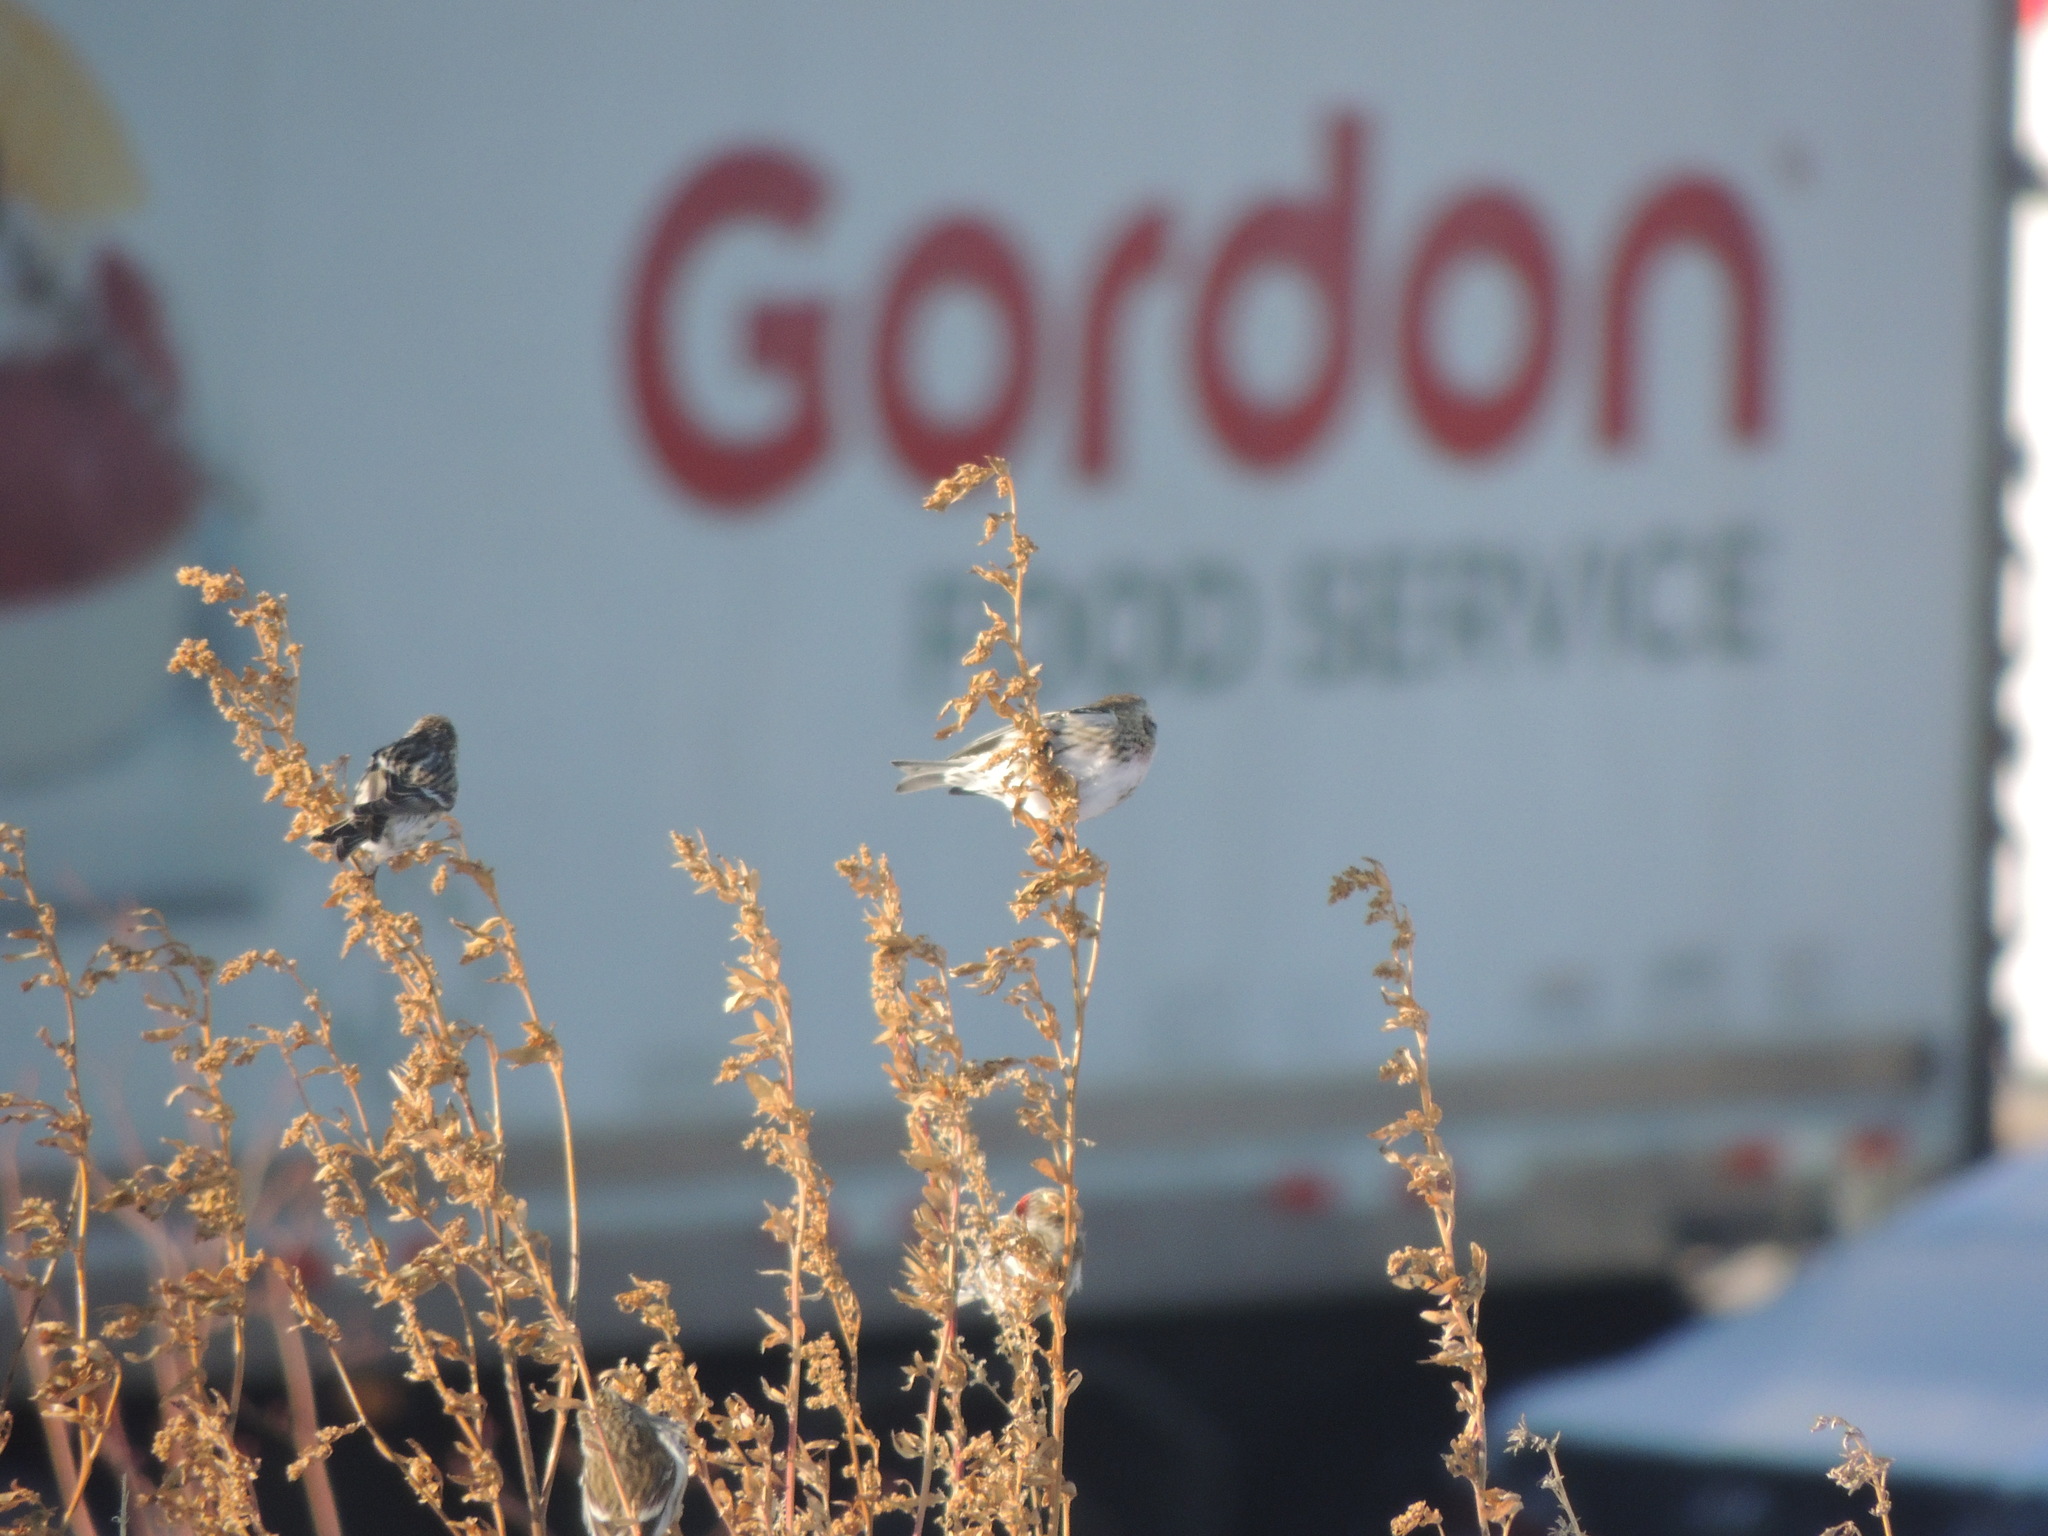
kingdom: Animalia
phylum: Chordata
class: Aves
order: Passeriformes
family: Fringillidae
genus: Acanthis
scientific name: Acanthis flammea
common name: Common redpoll
